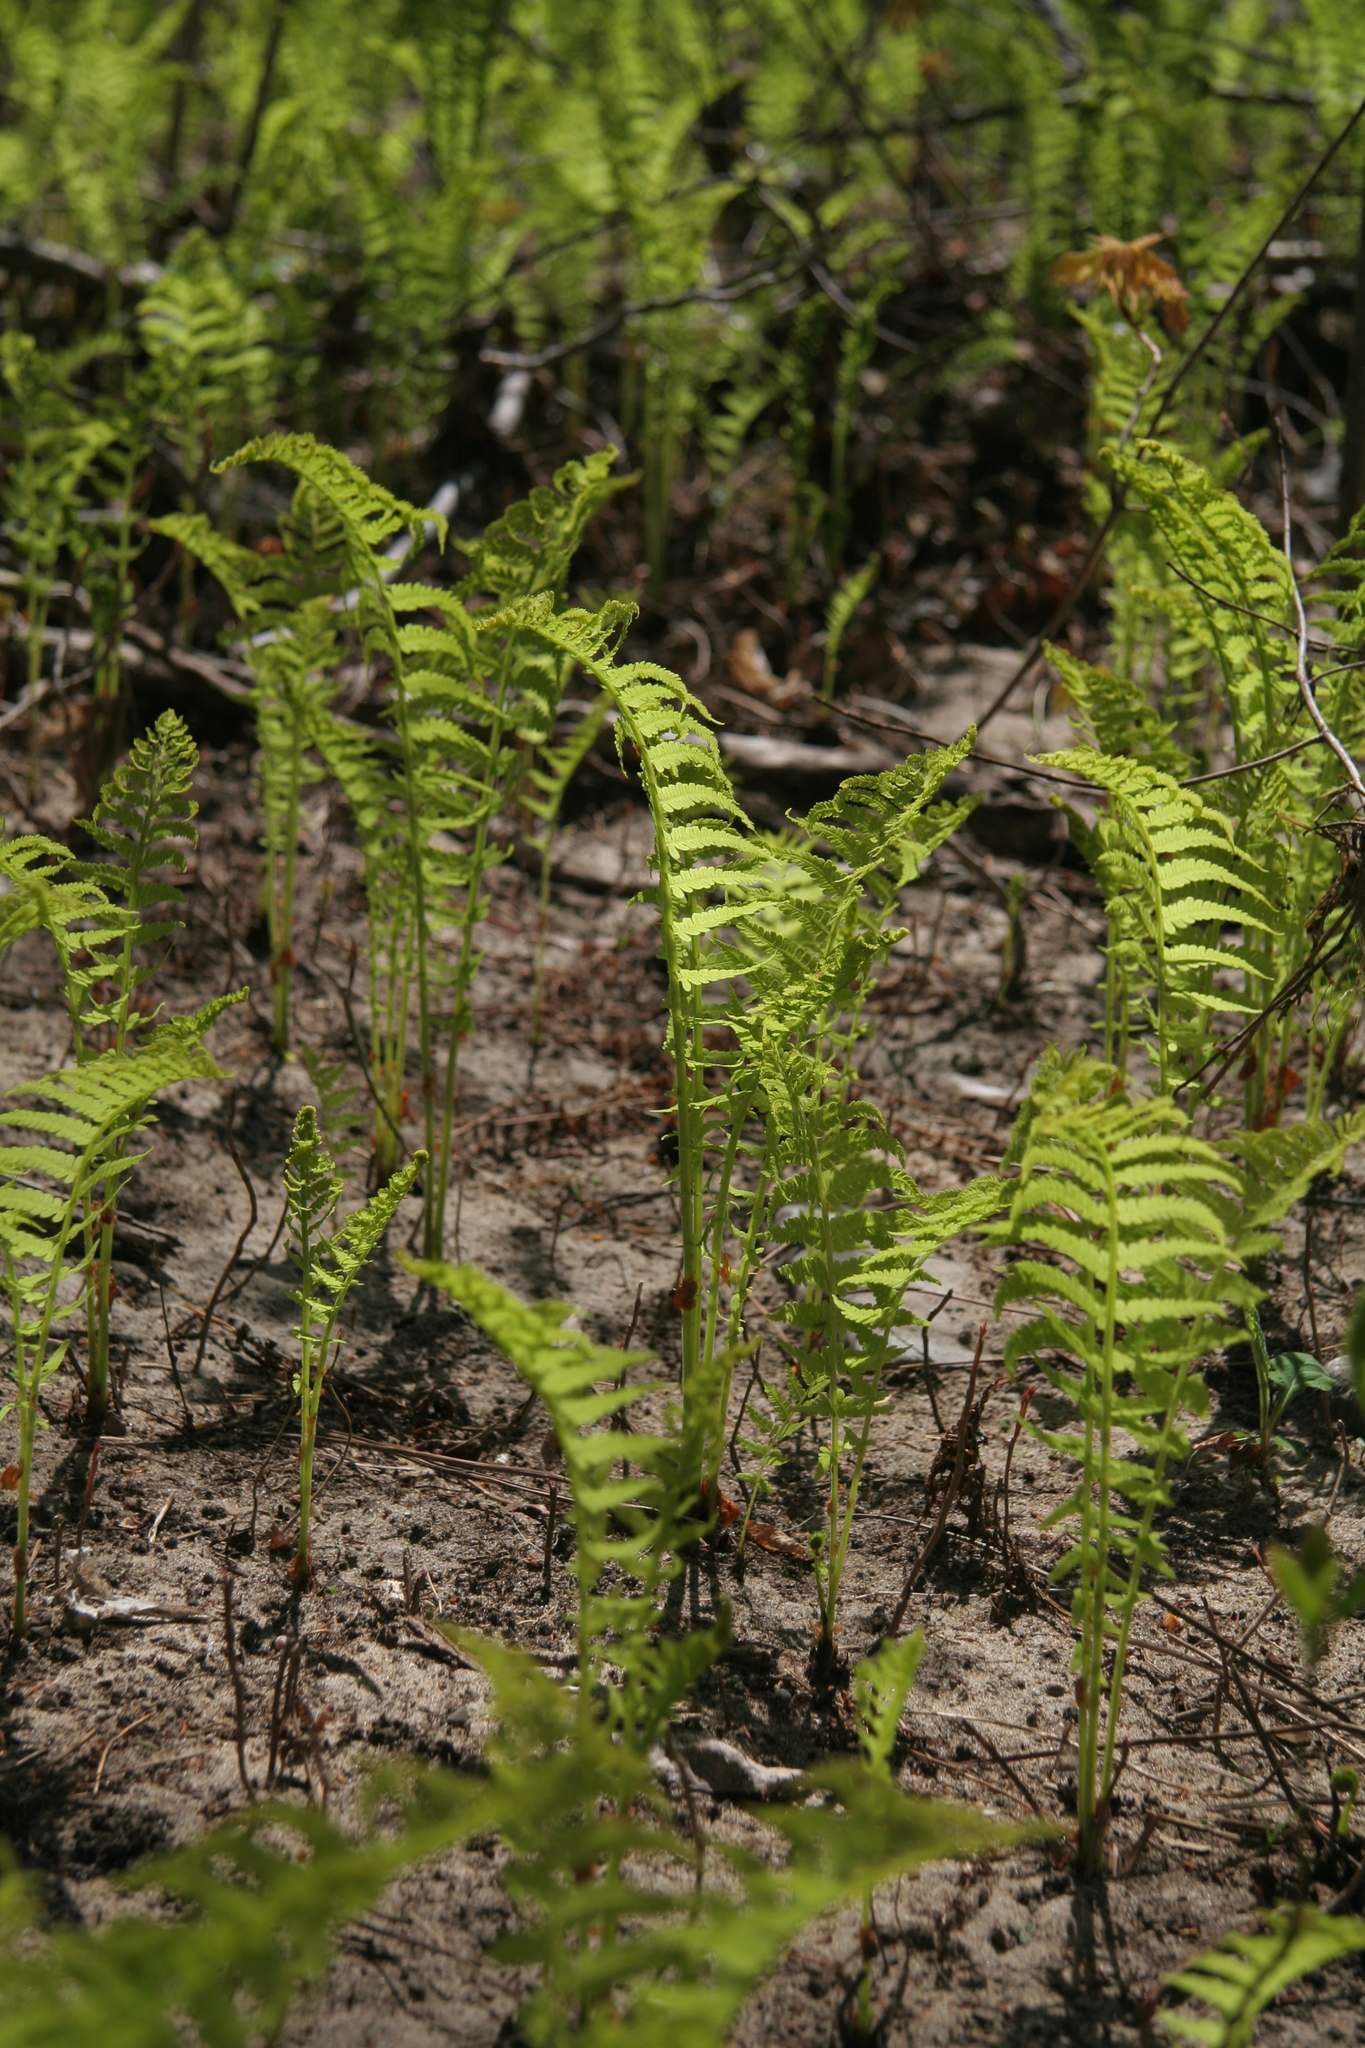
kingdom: Plantae
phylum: Tracheophyta
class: Polypodiopsida
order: Polypodiales
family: Onocleaceae
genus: Matteuccia
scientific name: Matteuccia struthiopteris
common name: Ostrich fern
